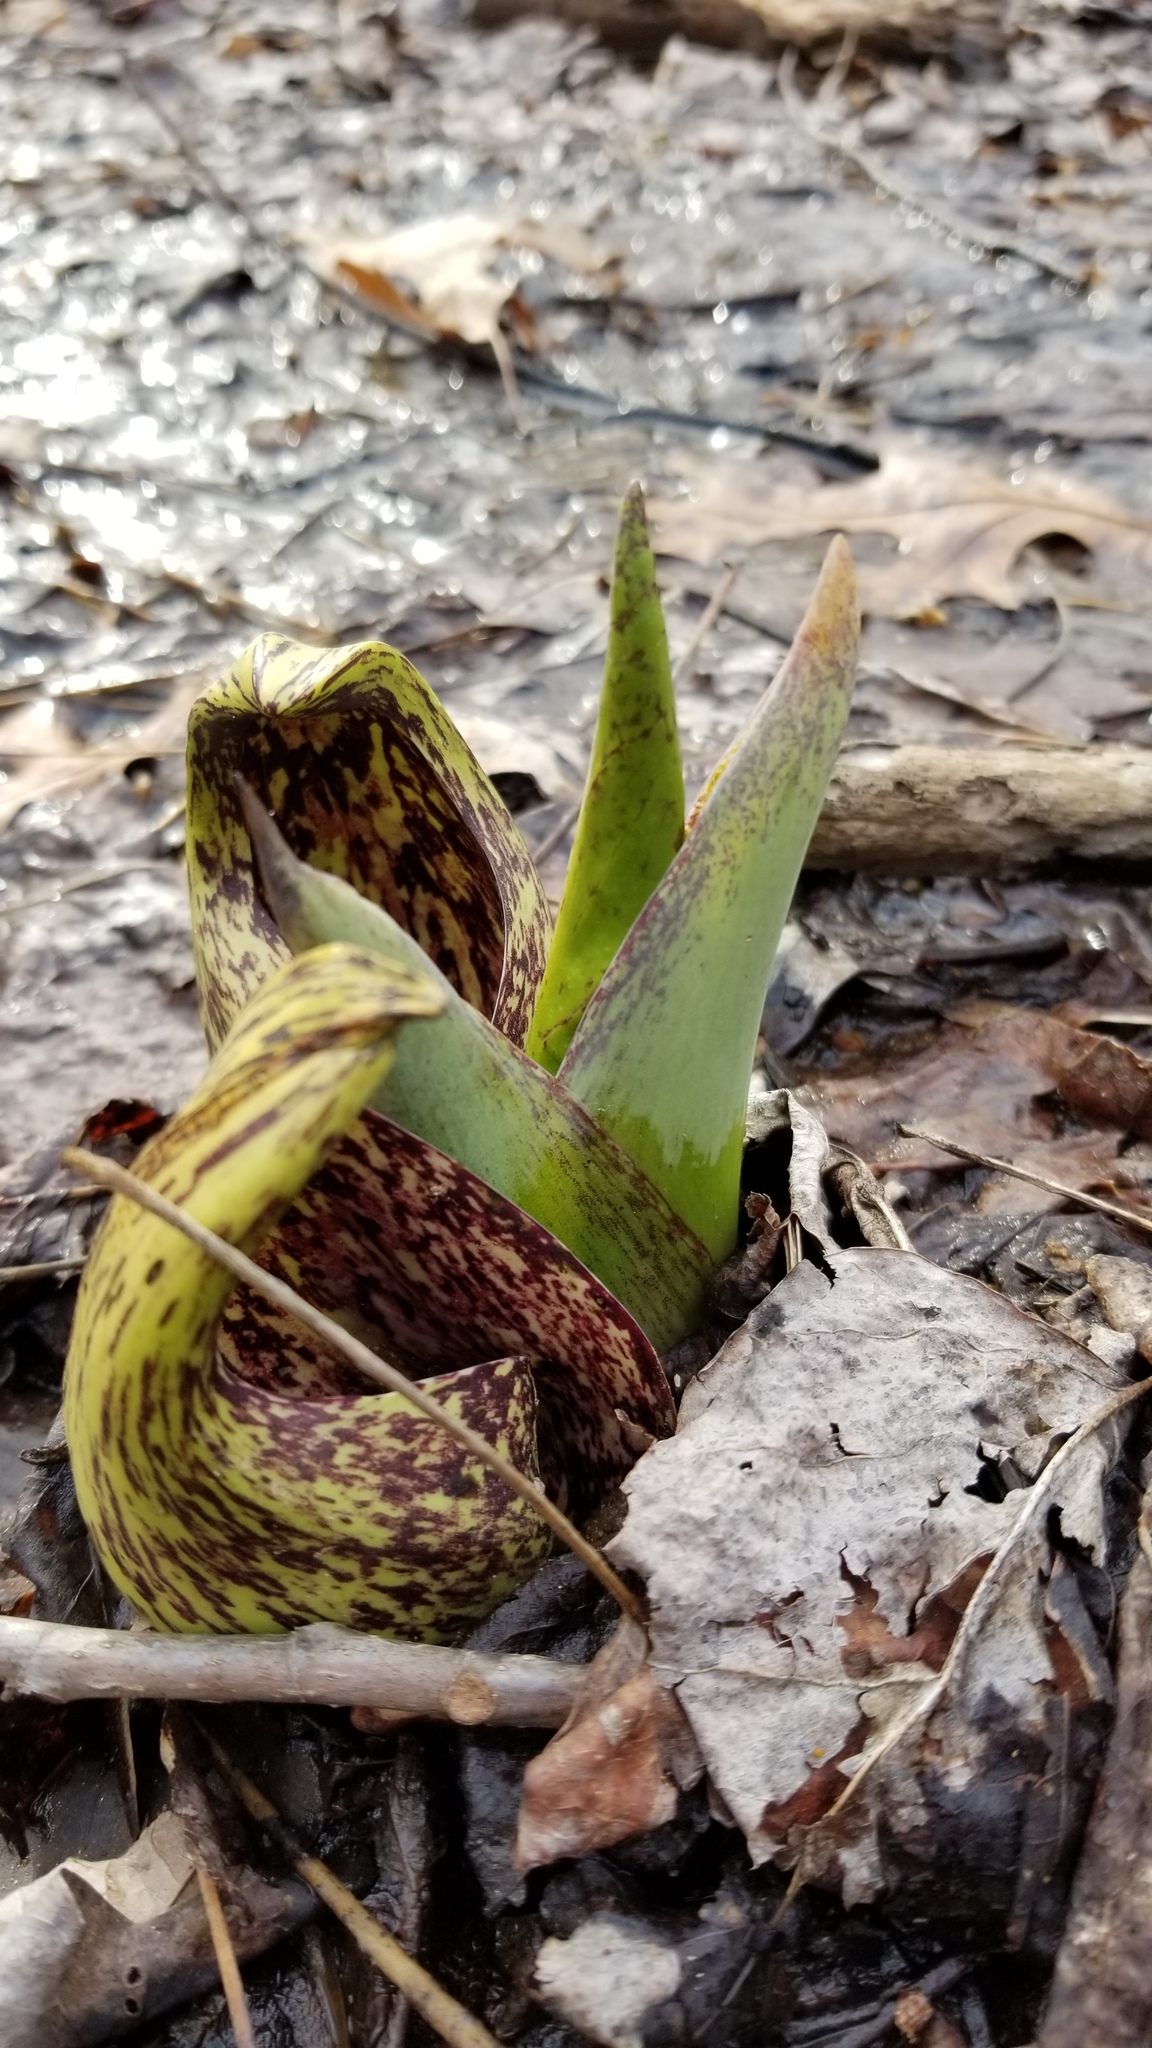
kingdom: Plantae
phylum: Tracheophyta
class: Liliopsida
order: Alismatales
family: Araceae
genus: Symplocarpus
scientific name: Symplocarpus foetidus
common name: Eastern skunk cabbage
